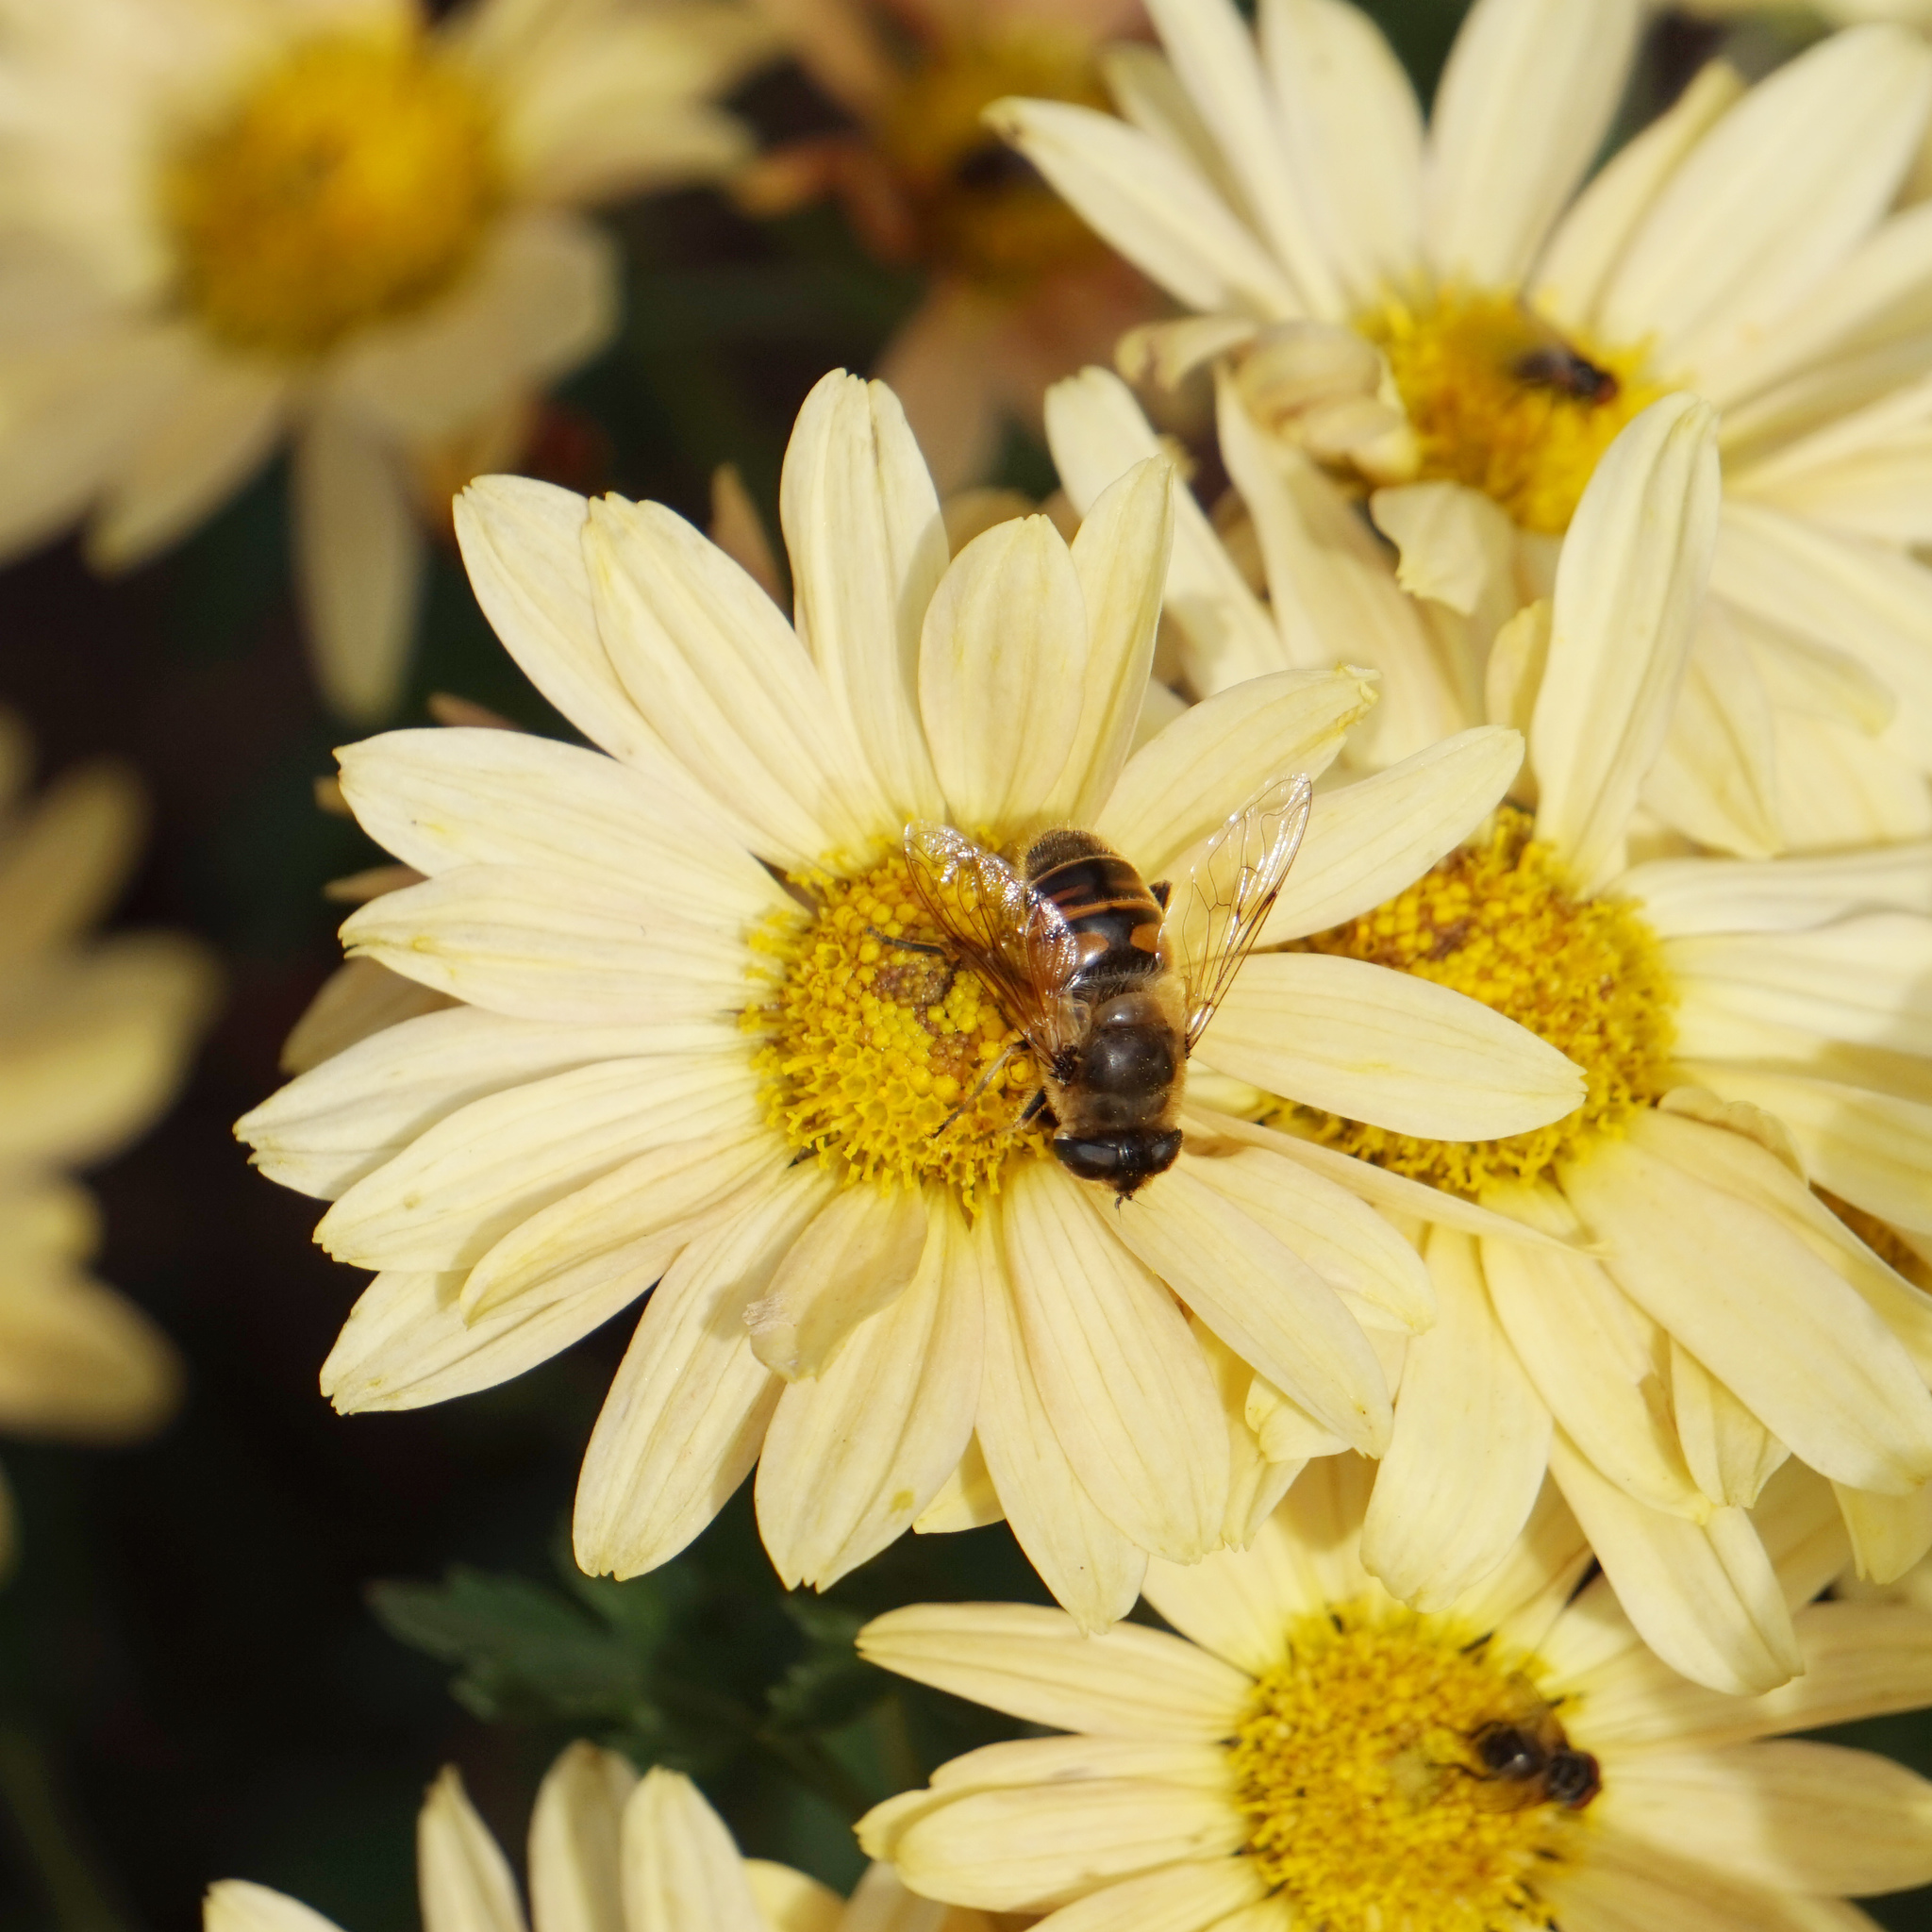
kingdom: Animalia
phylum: Arthropoda
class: Insecta
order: Diptera
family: Syrphidae
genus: Eristalis
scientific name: Eristalis tenax
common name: Drone fly
